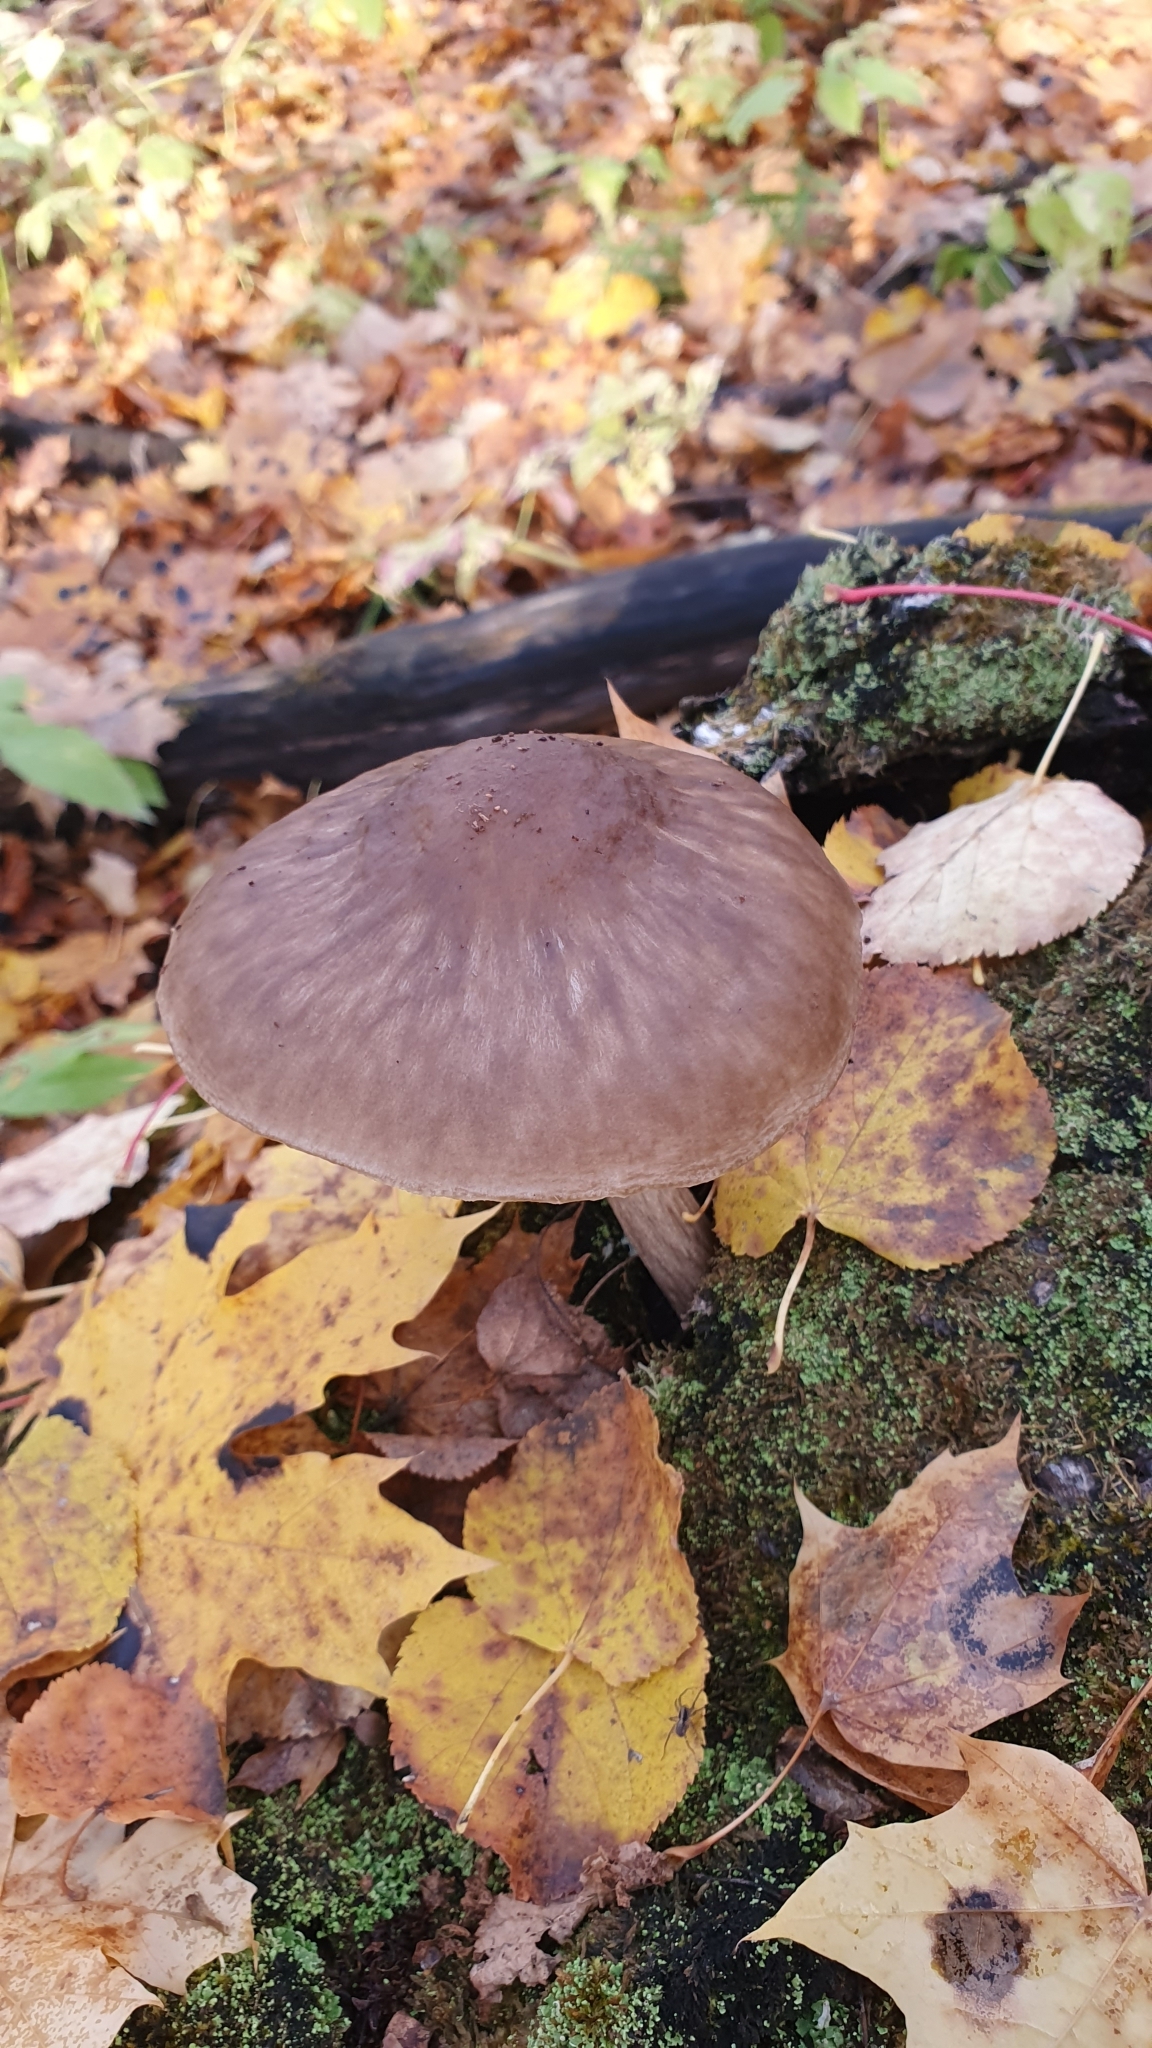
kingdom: Fungi
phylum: Basidiomycota
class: Agaricomycetes
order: Agaricales
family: Pluteaceae
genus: Pluteus
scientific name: Pluteus cervinus
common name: Deer shield
